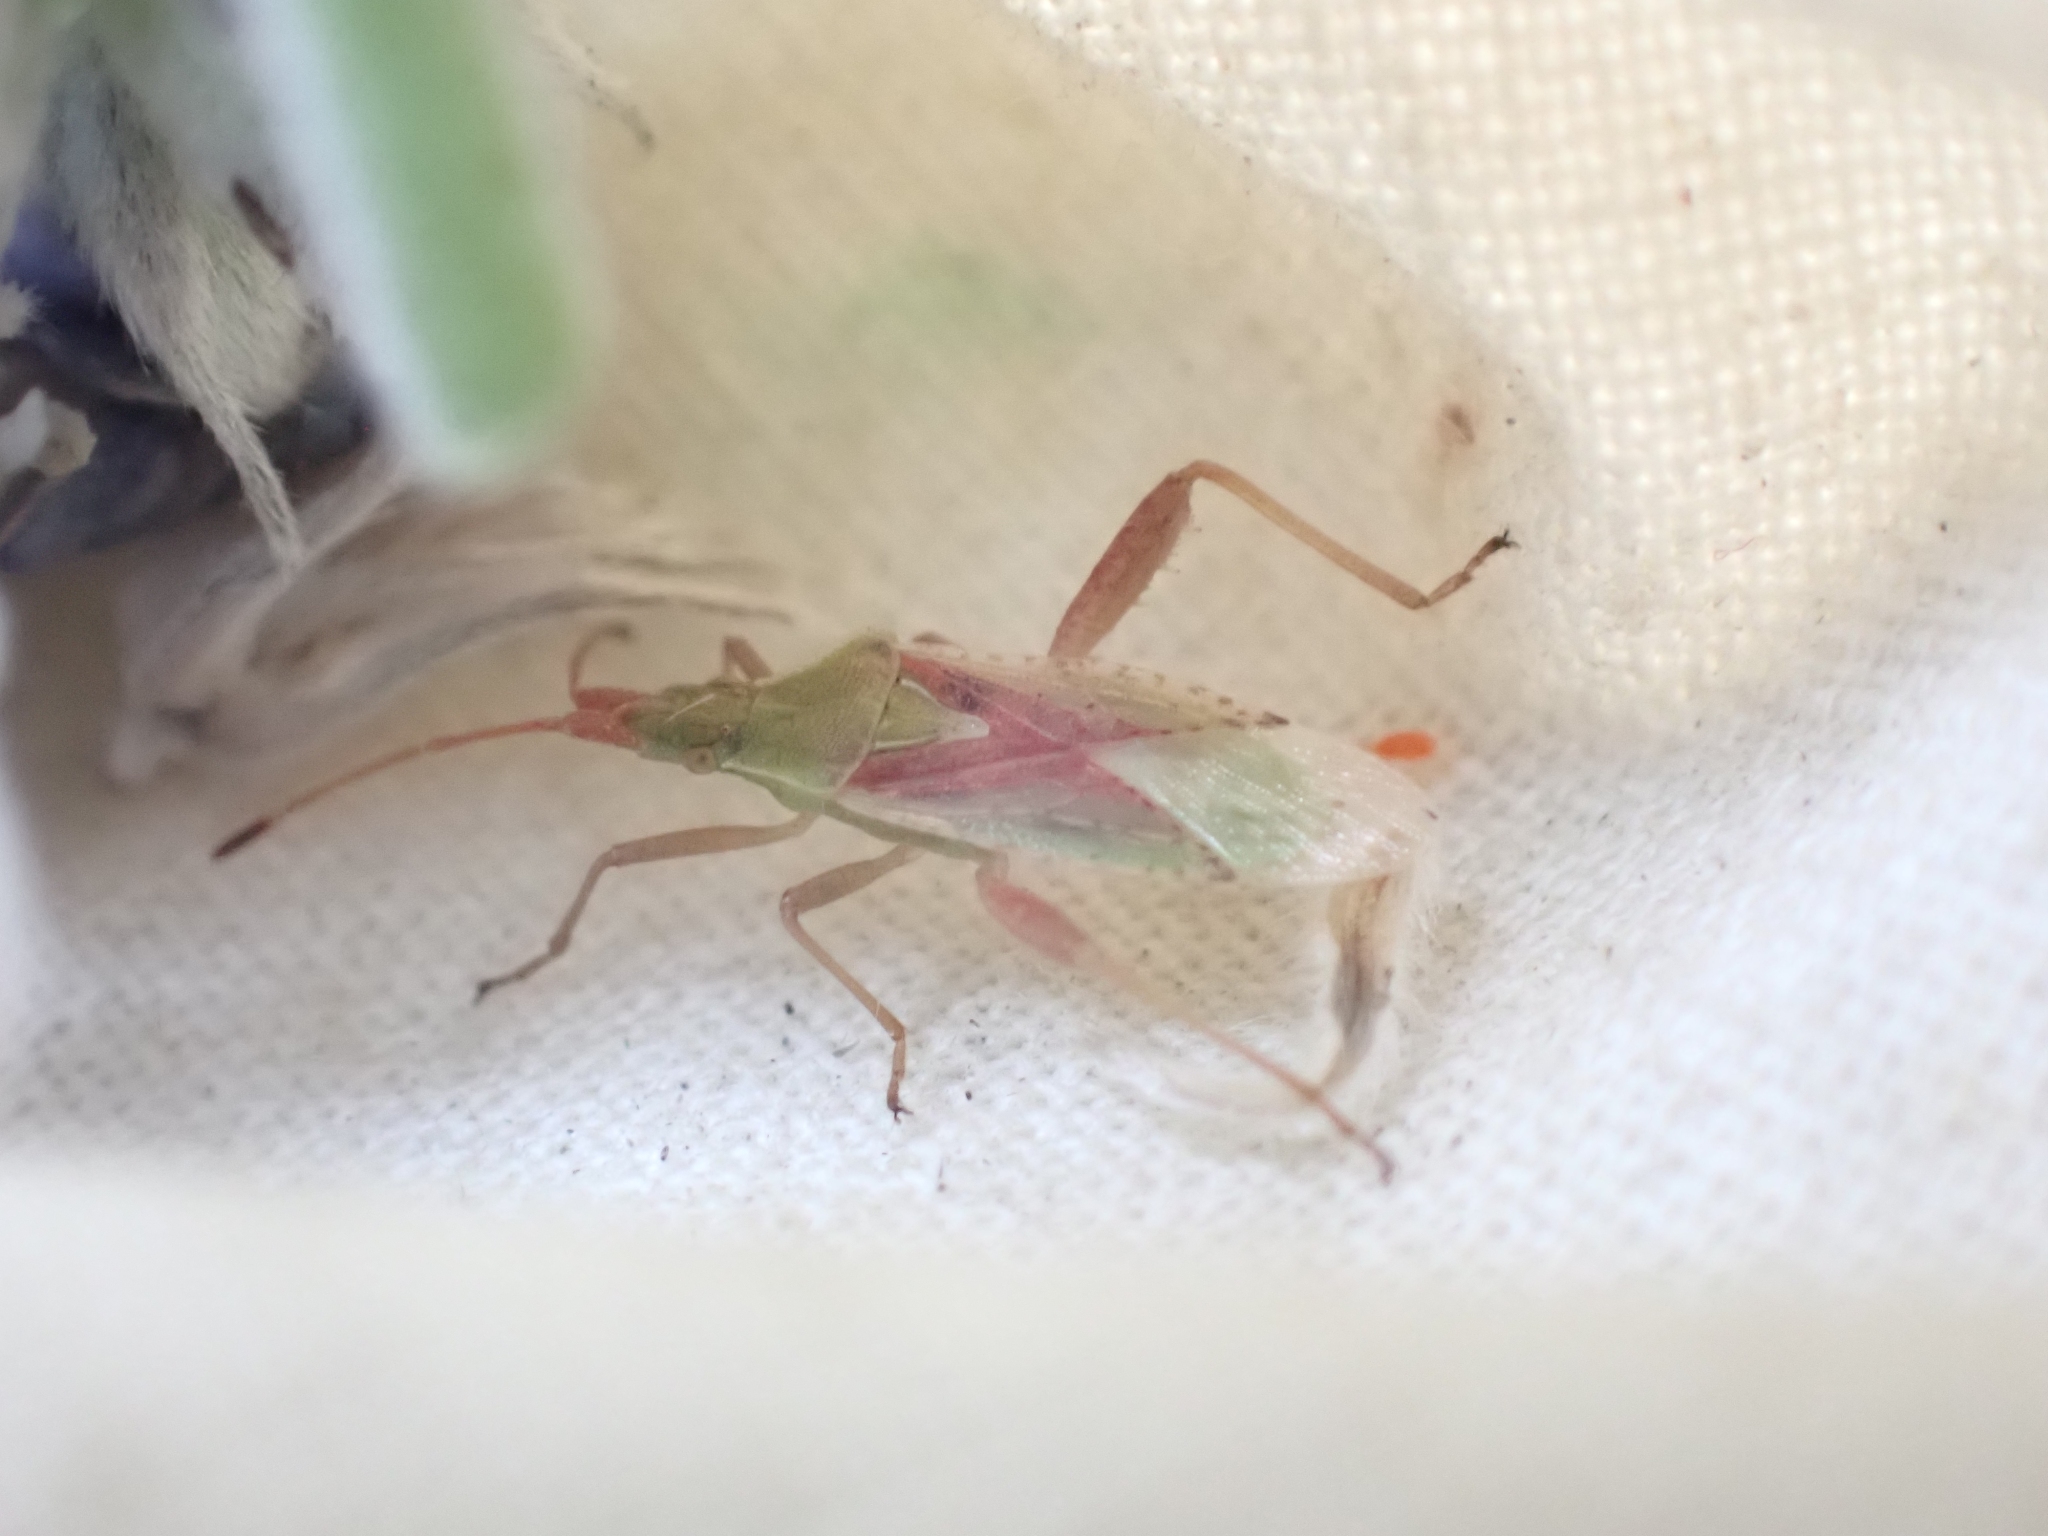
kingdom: Animalia
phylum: Arthropoda
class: Insecta
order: Hemiptera
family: Rhopalidae
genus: Harmostes
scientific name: Harmostes reflexulus
